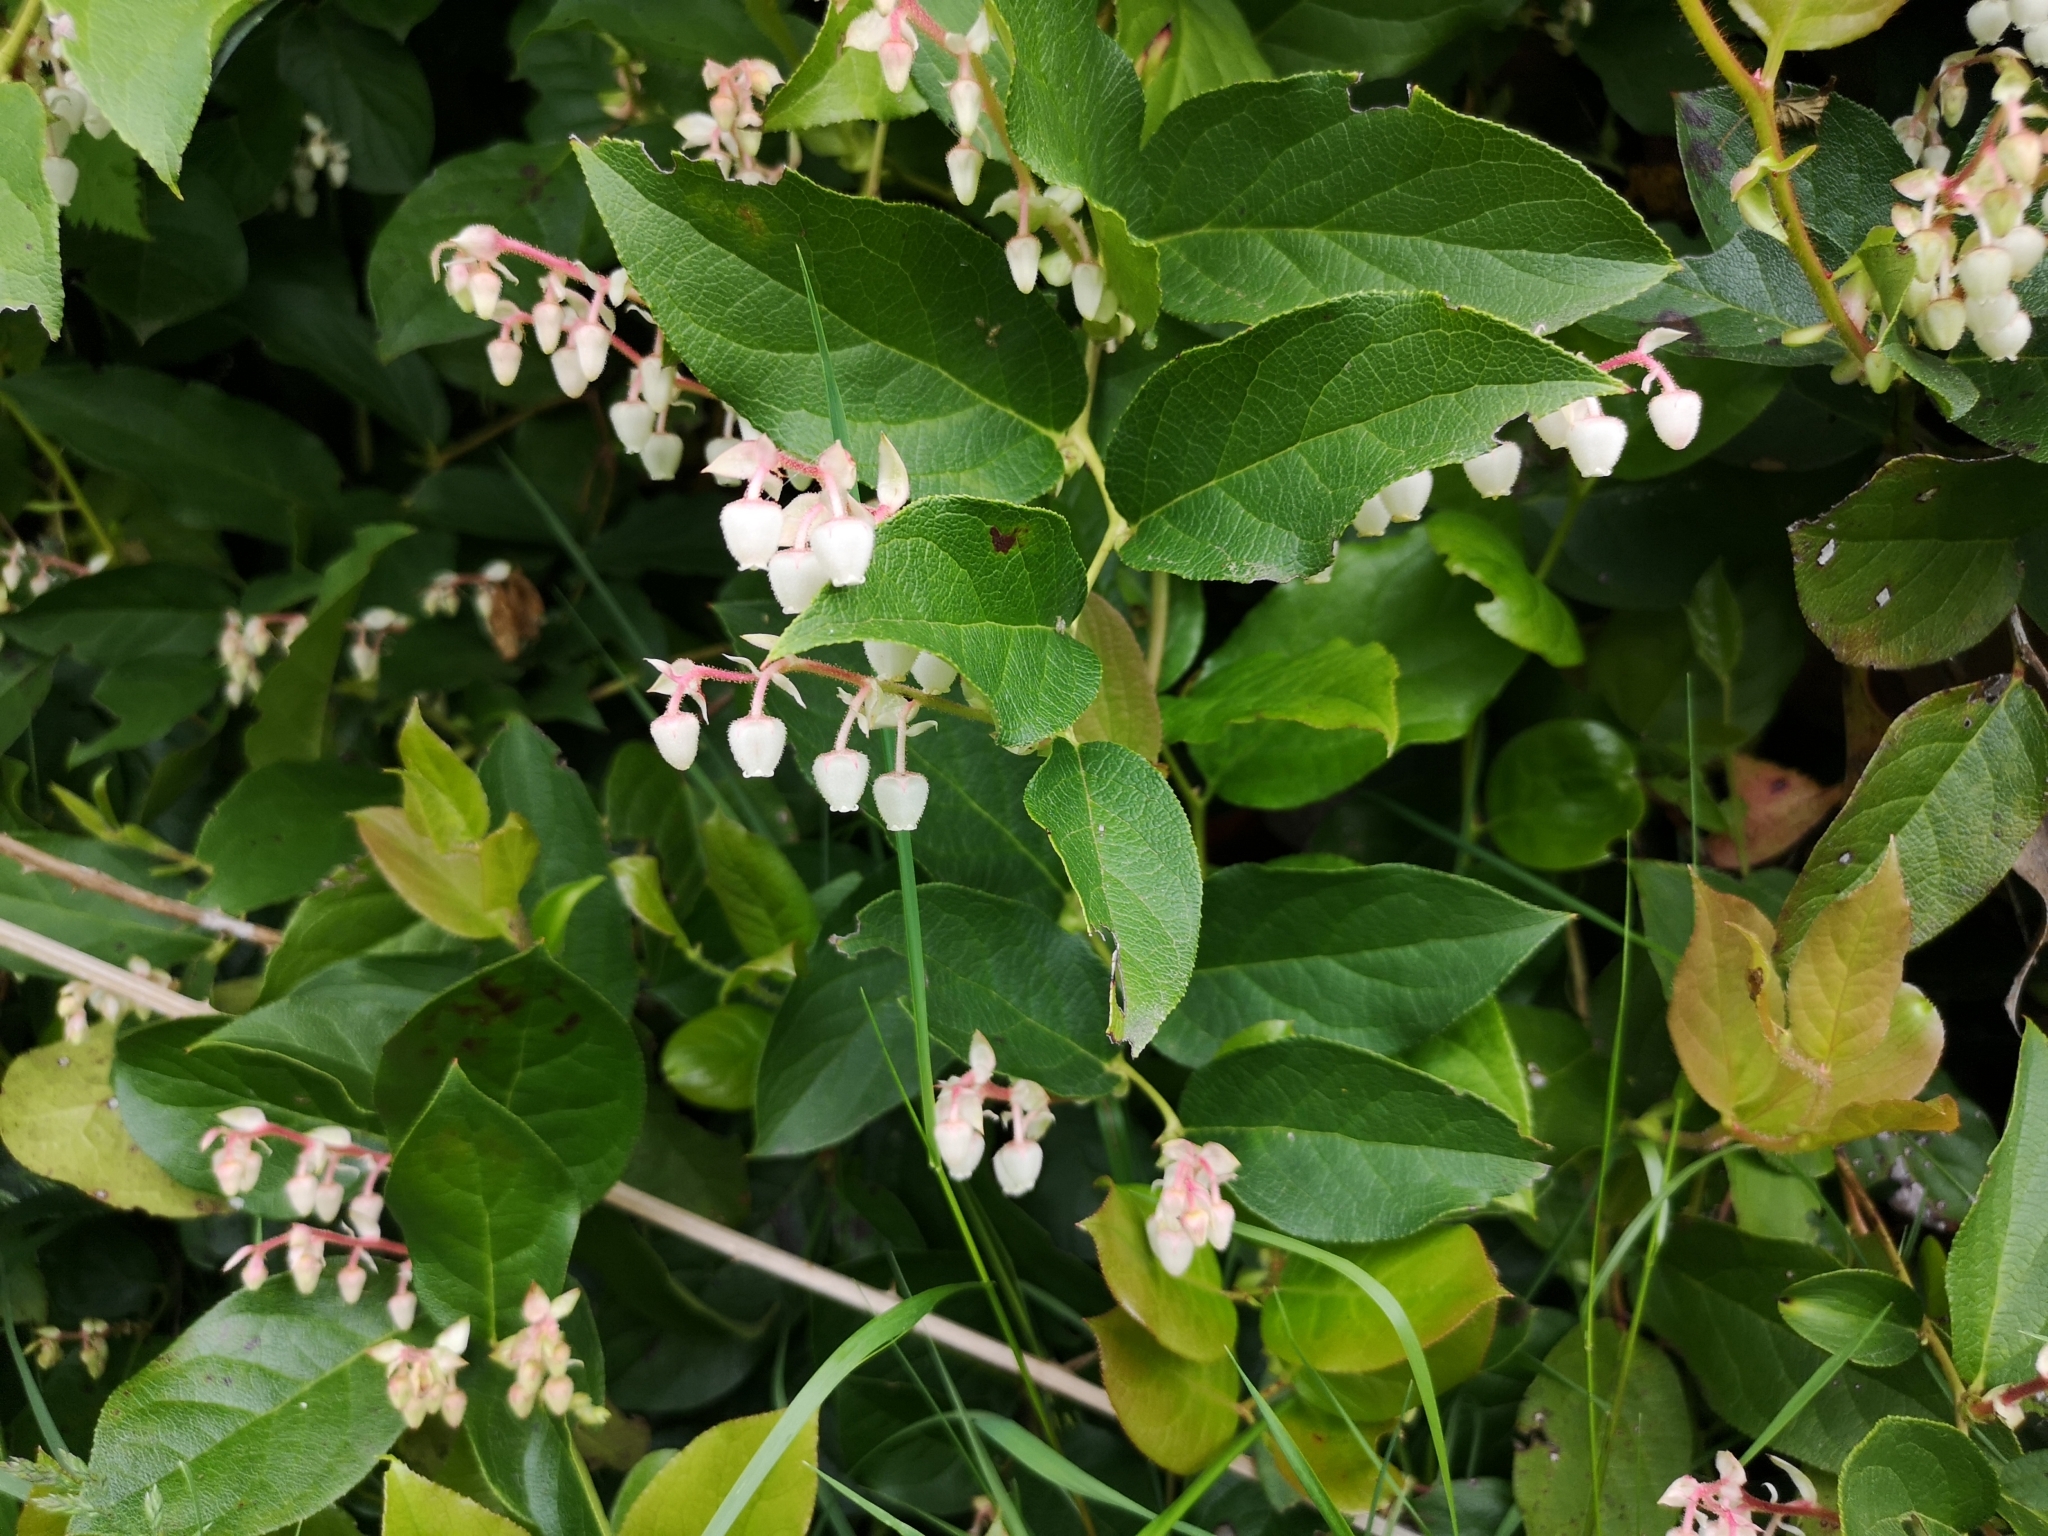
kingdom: Plantae
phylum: Tracheophyta
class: Magnoliopsida
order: Ericales
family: Ericaceae
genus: Gaultheria
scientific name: Gaultheria shallon
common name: Shallon
